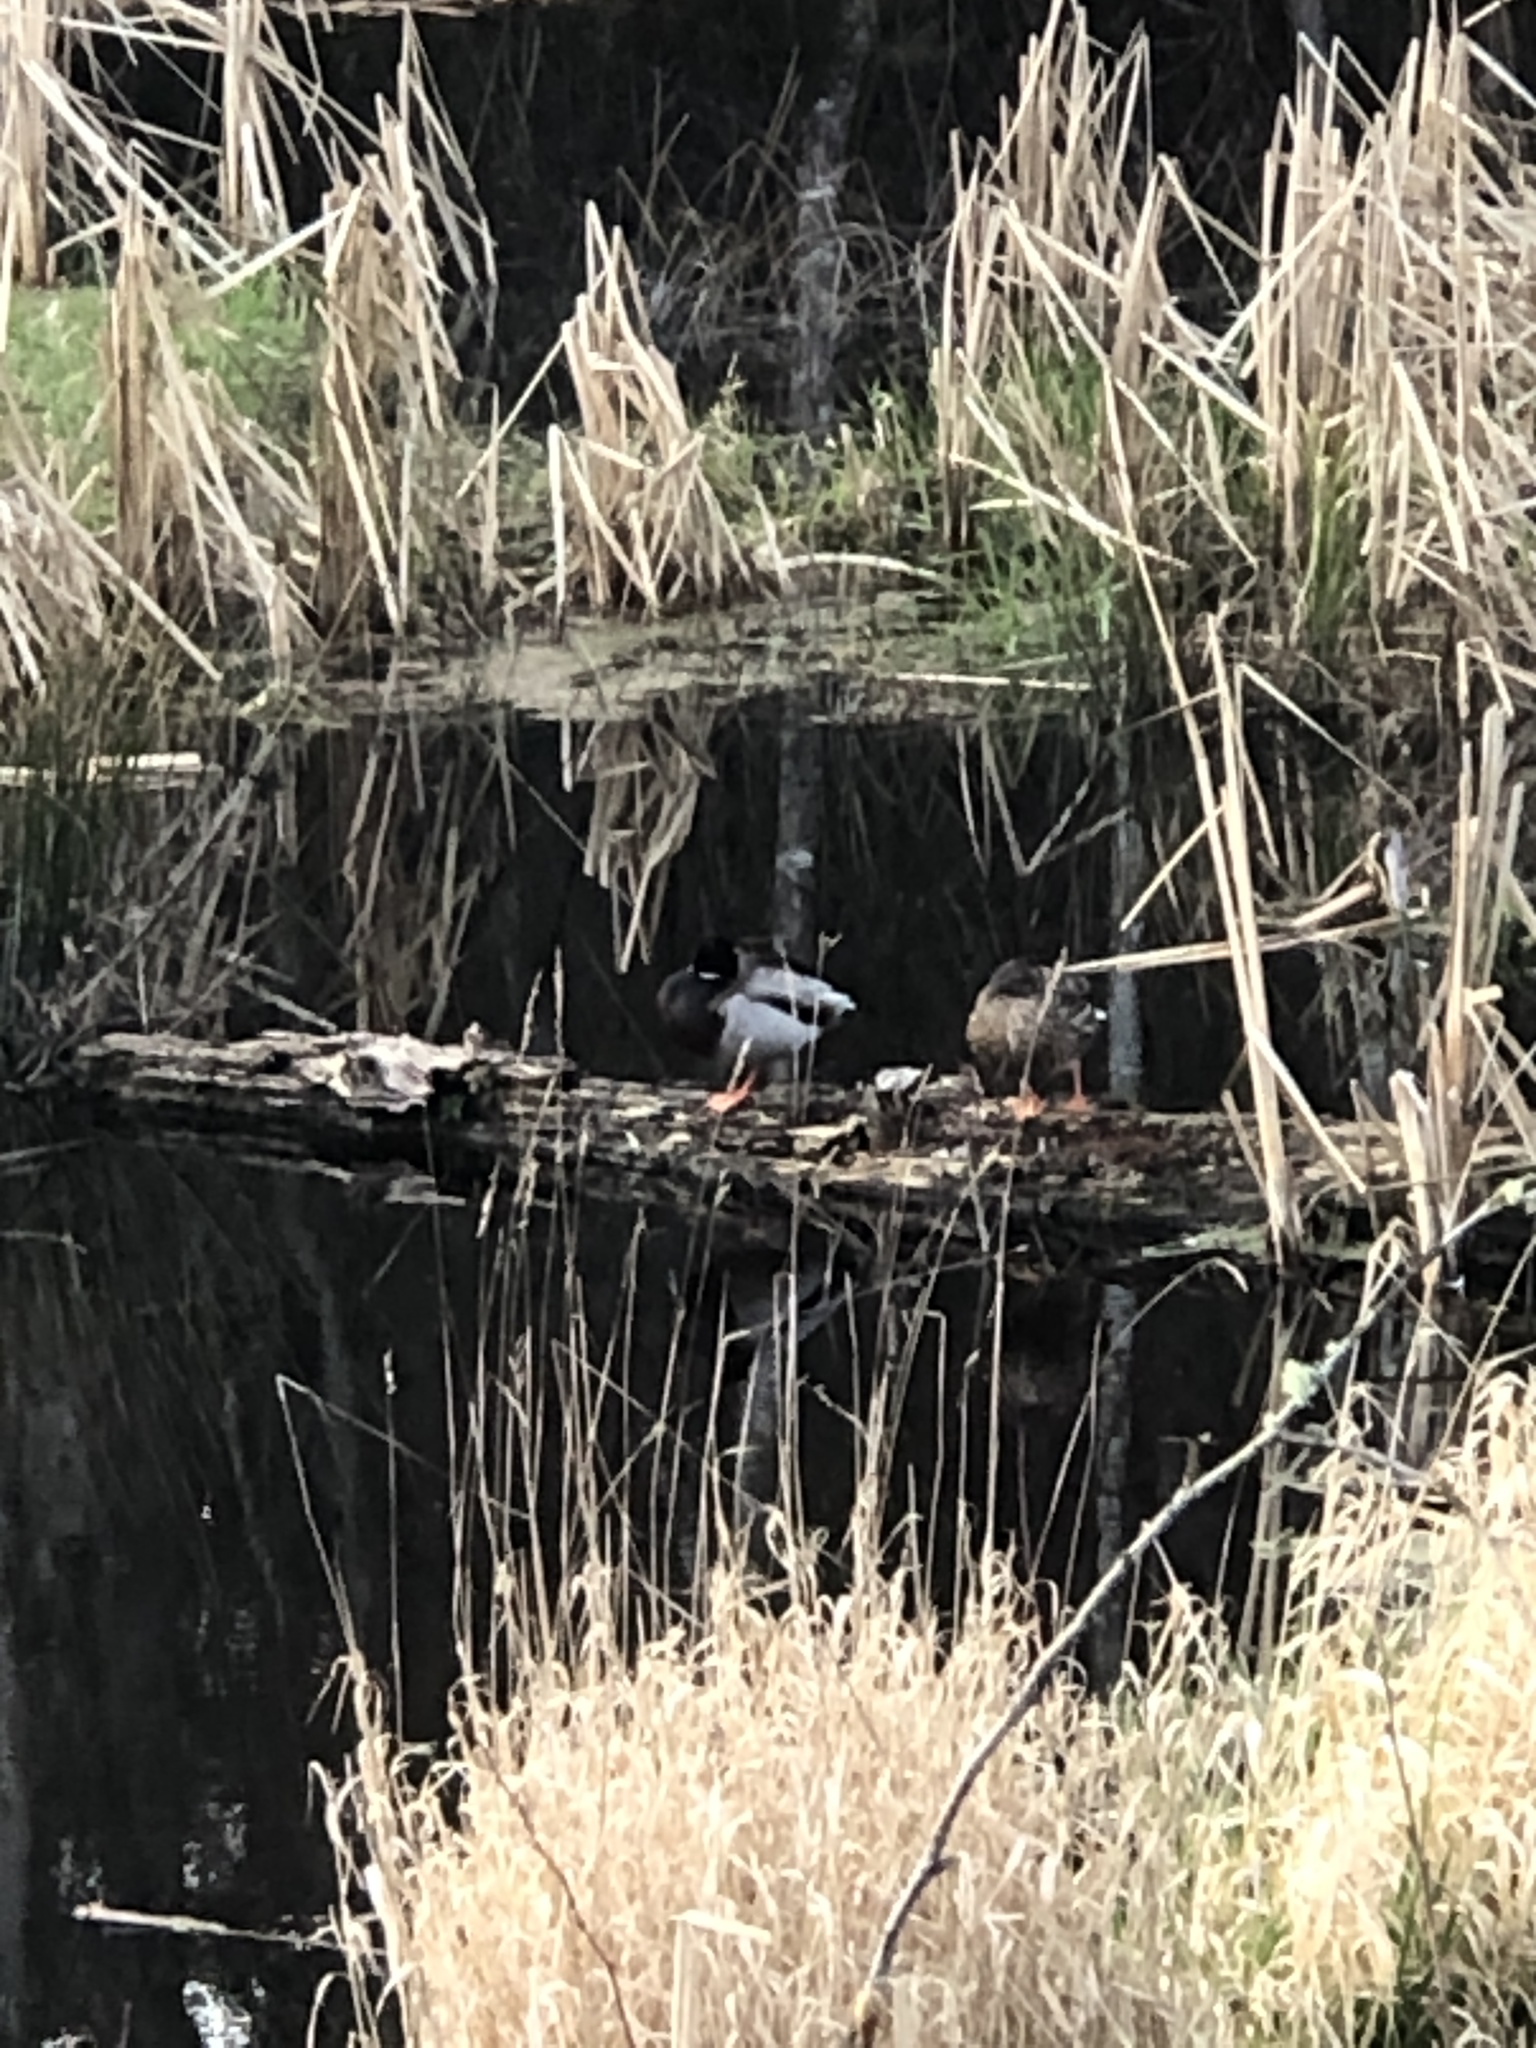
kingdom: Animalia
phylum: Chordata
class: Aves
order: Anseriformes
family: Anatidae
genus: Anas
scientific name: Anas platyrhynchos
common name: Mallard
